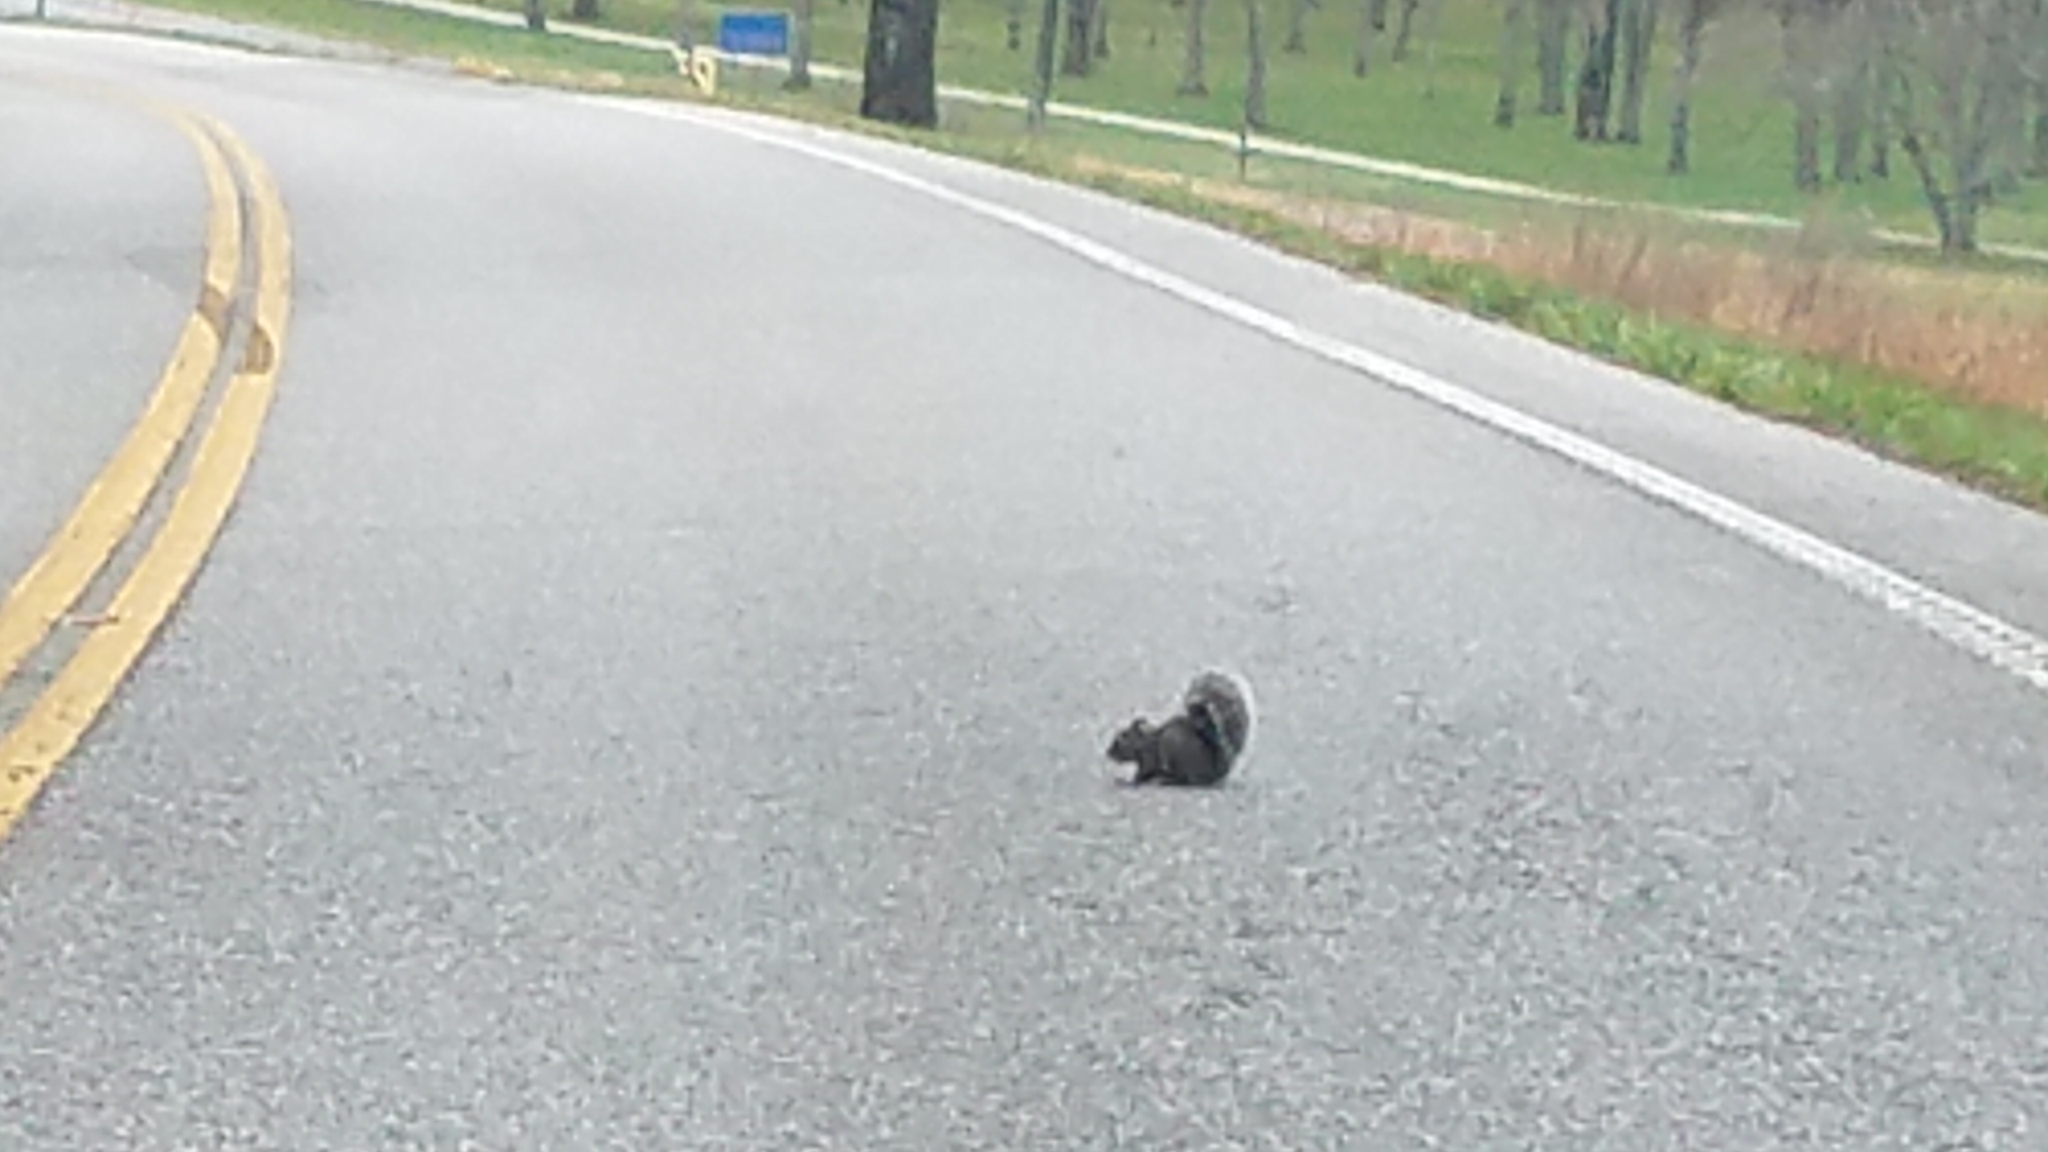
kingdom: Animalia
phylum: Chordata
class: Mammalia
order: Rodentia
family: Sciuridae
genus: Sciurus
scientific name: Sciurus carolinensis
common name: Eastern gray squirrel
